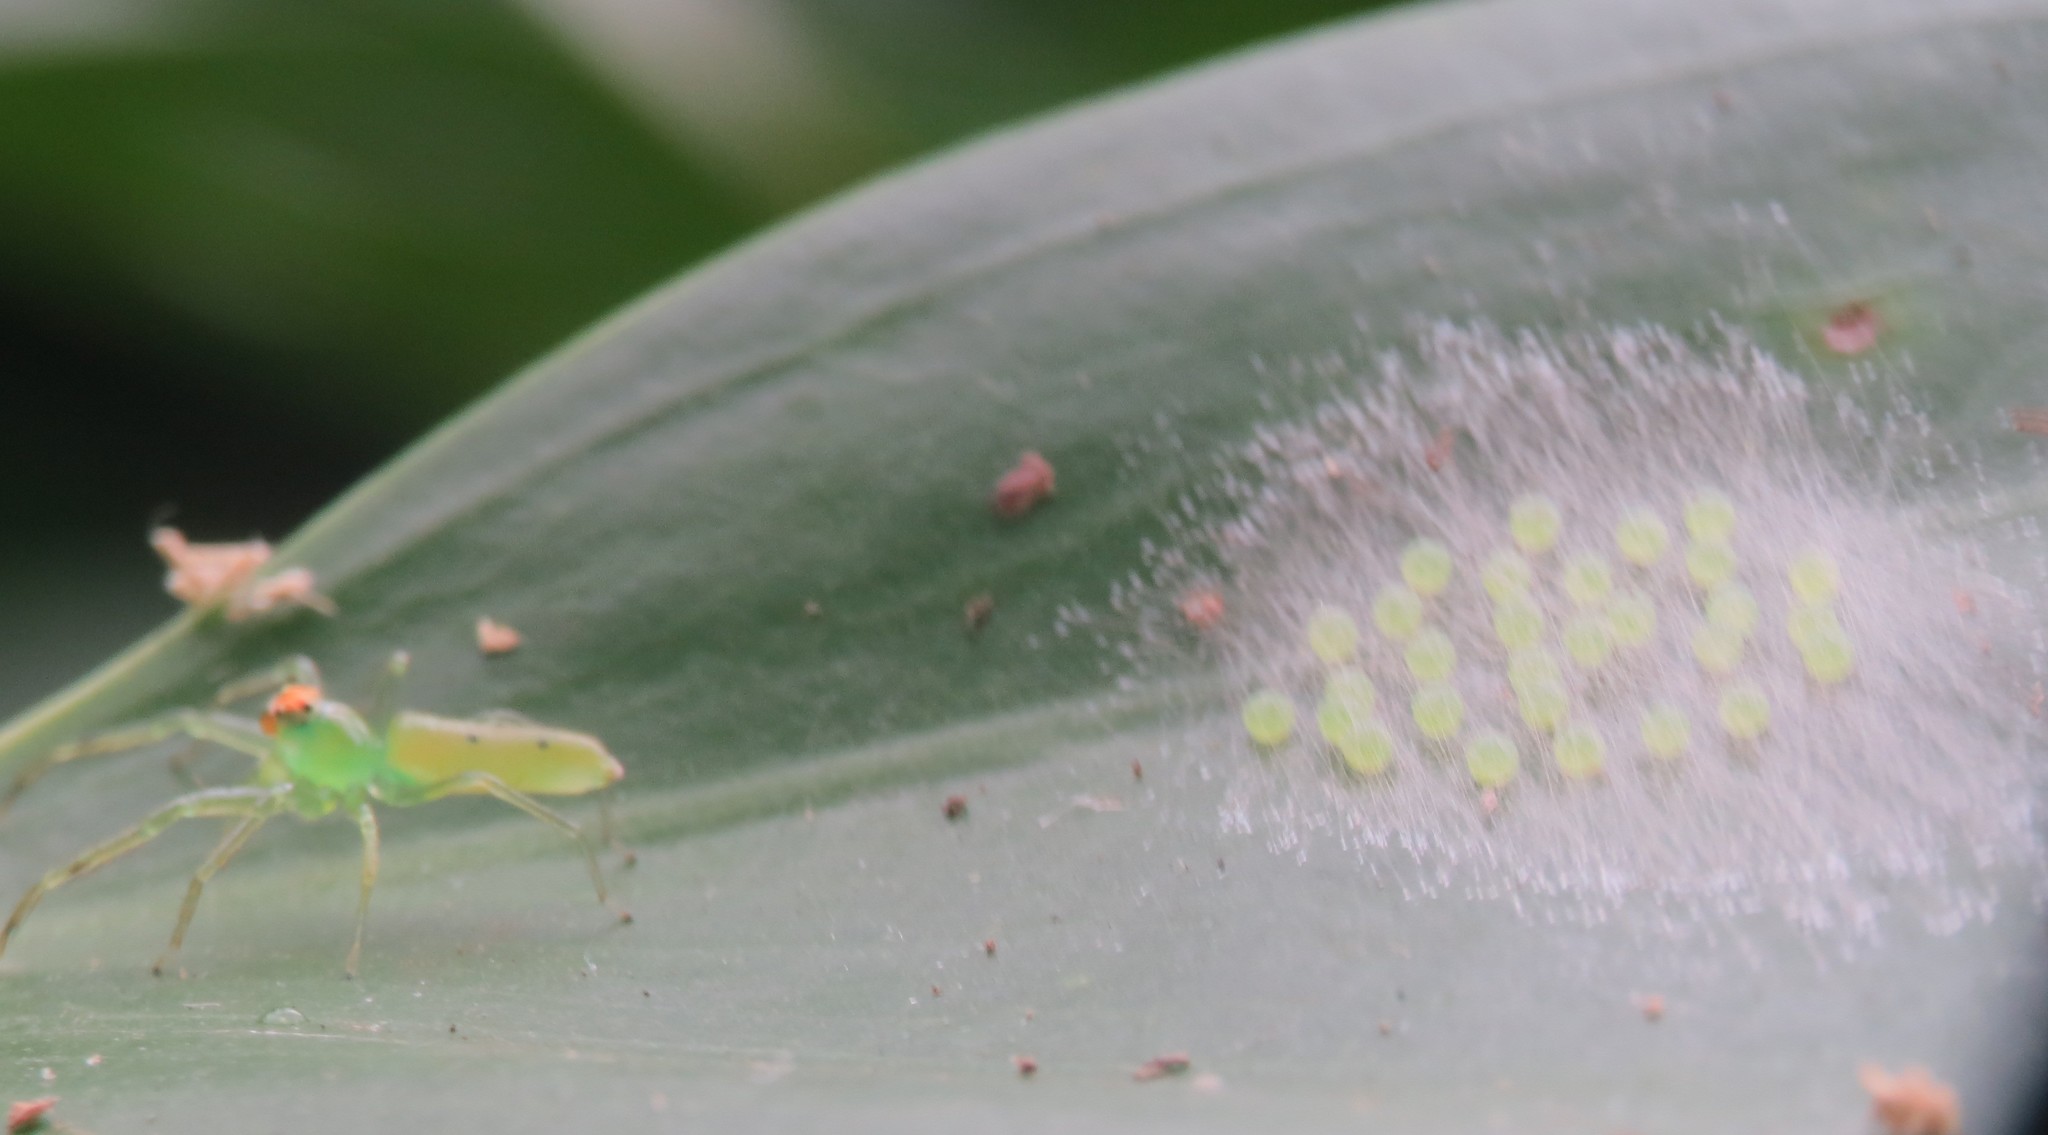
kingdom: Animalia
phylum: Arthropoda
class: Arachnida
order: Araneae
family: Salticidae
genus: Lyssomanes
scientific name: Lyssomanes pauper
